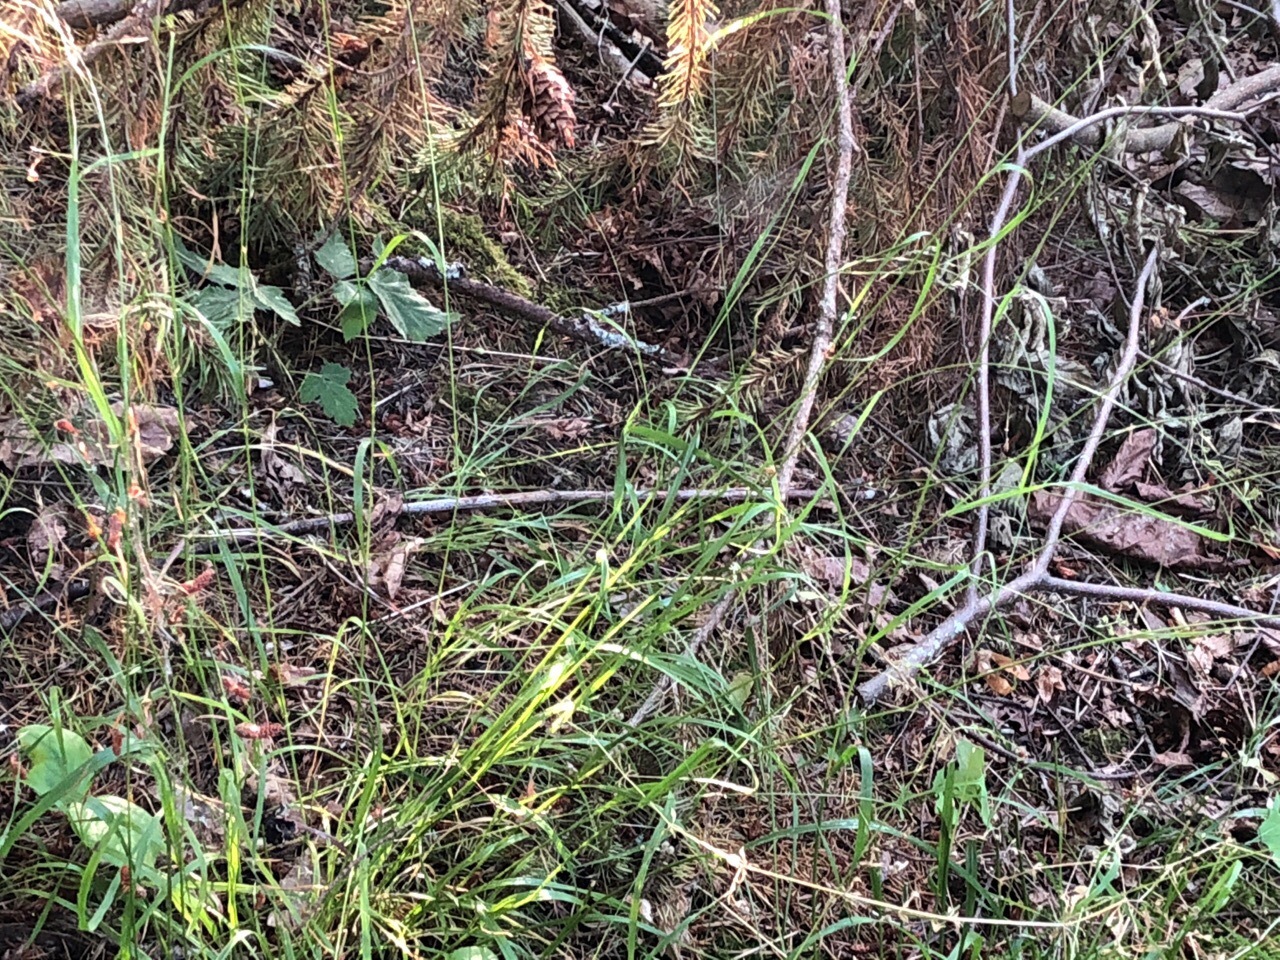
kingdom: Plantae
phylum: Tracheophyta
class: Liliopsida
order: Poales
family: Poaceae
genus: Melica
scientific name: Melica subulata
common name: Tapered oniongrass
